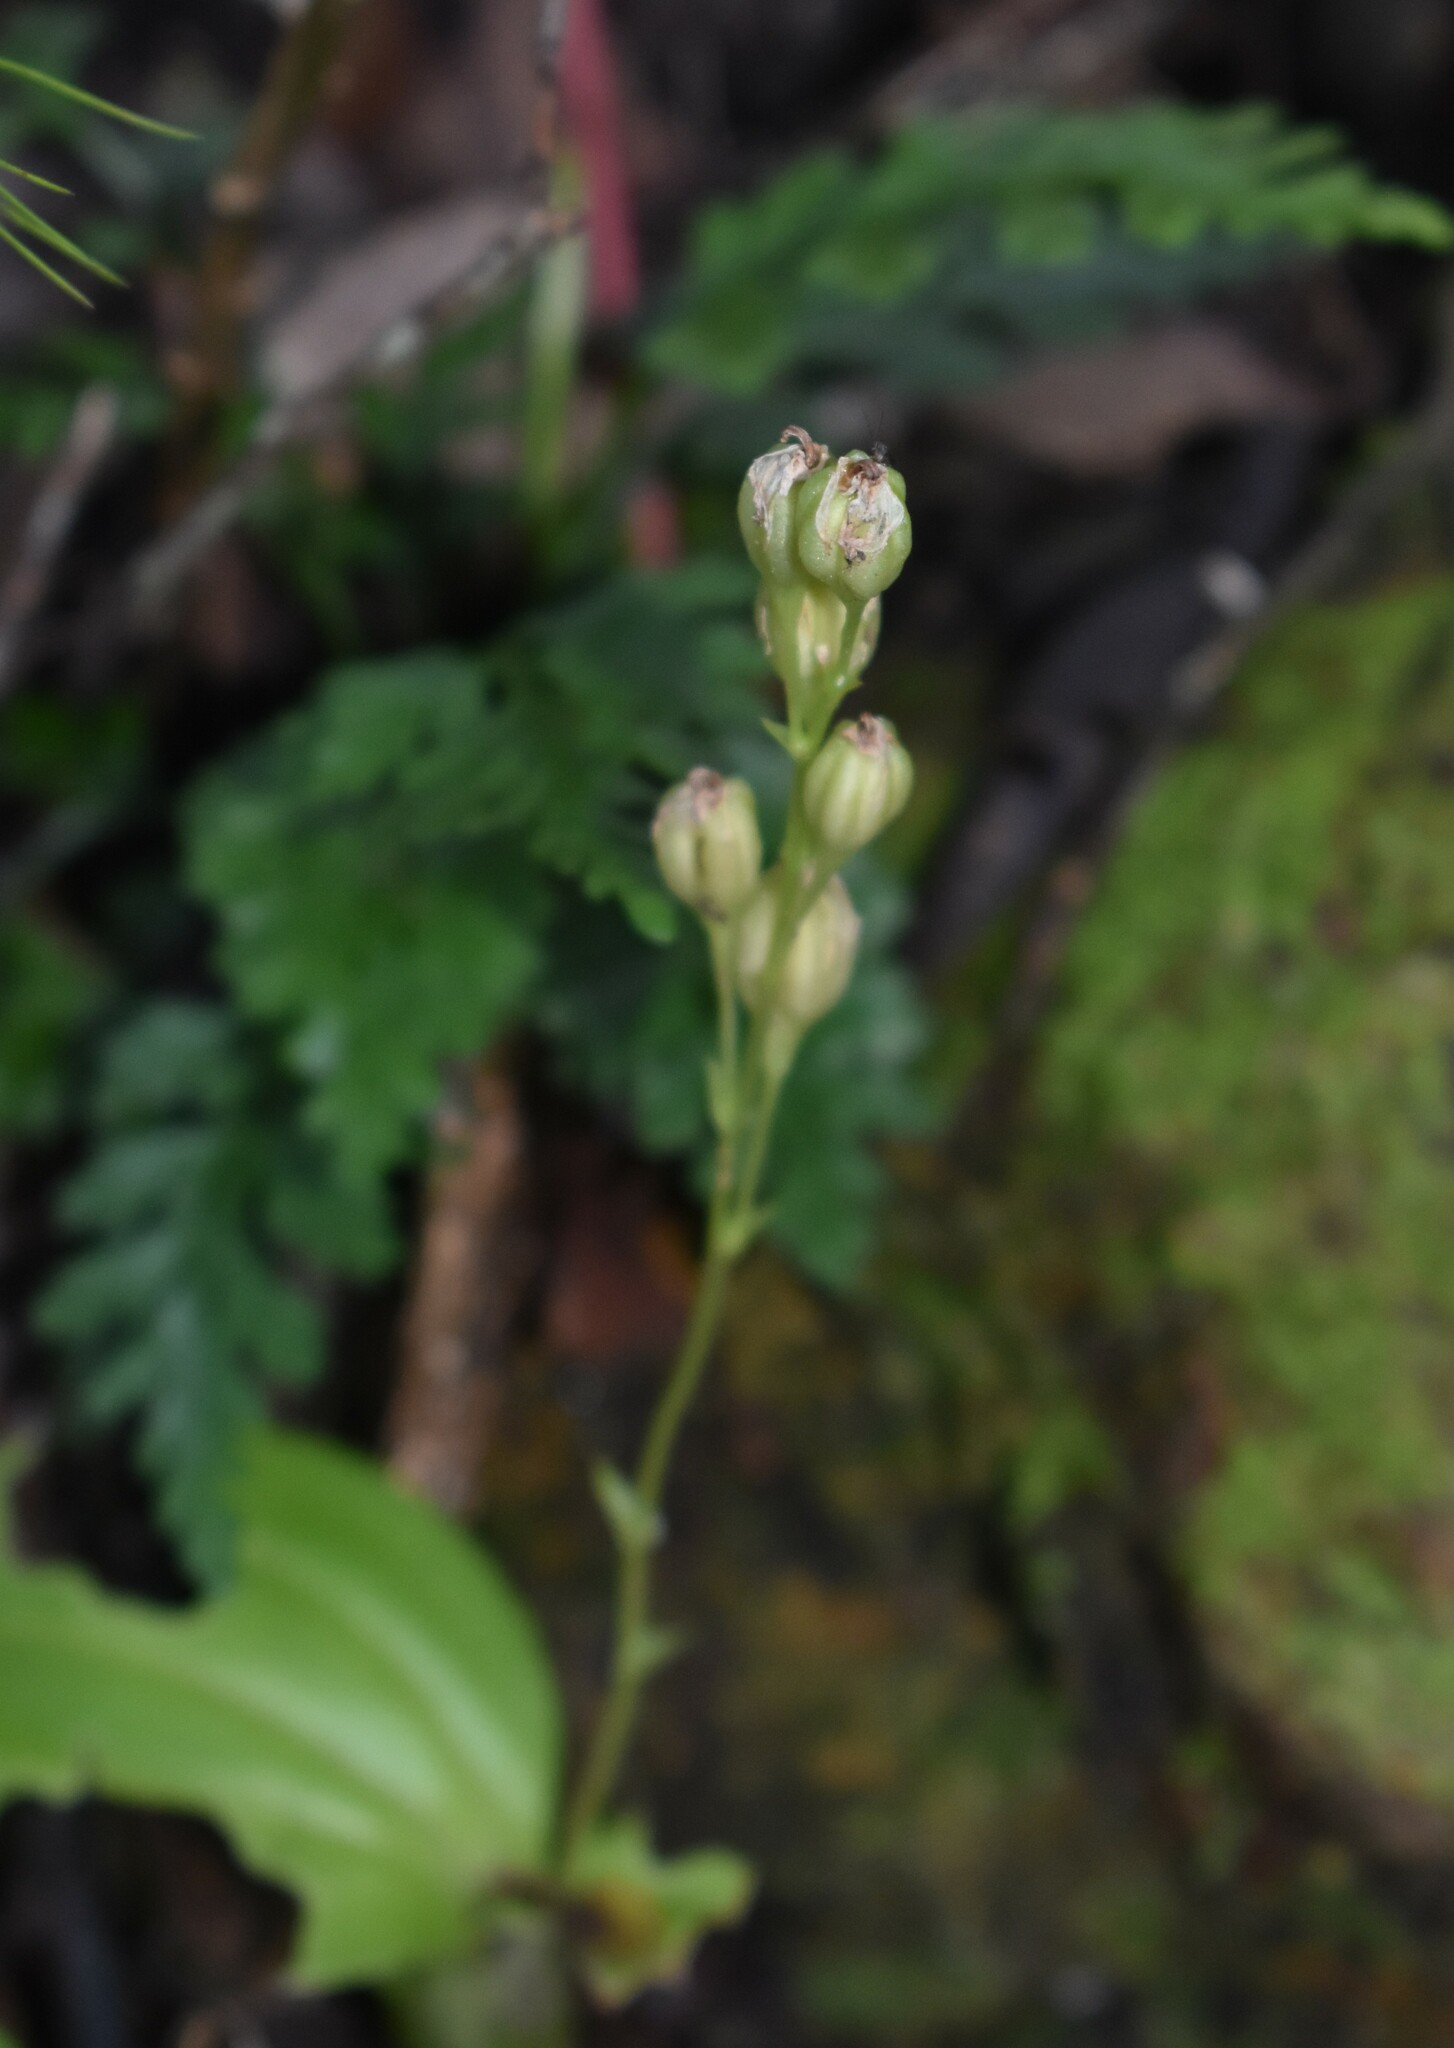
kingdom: Plantae
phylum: Tracheophyta
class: Liliopsida
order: Asparagales
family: Orchidaceae
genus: Liparis
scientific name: Liparis remota
